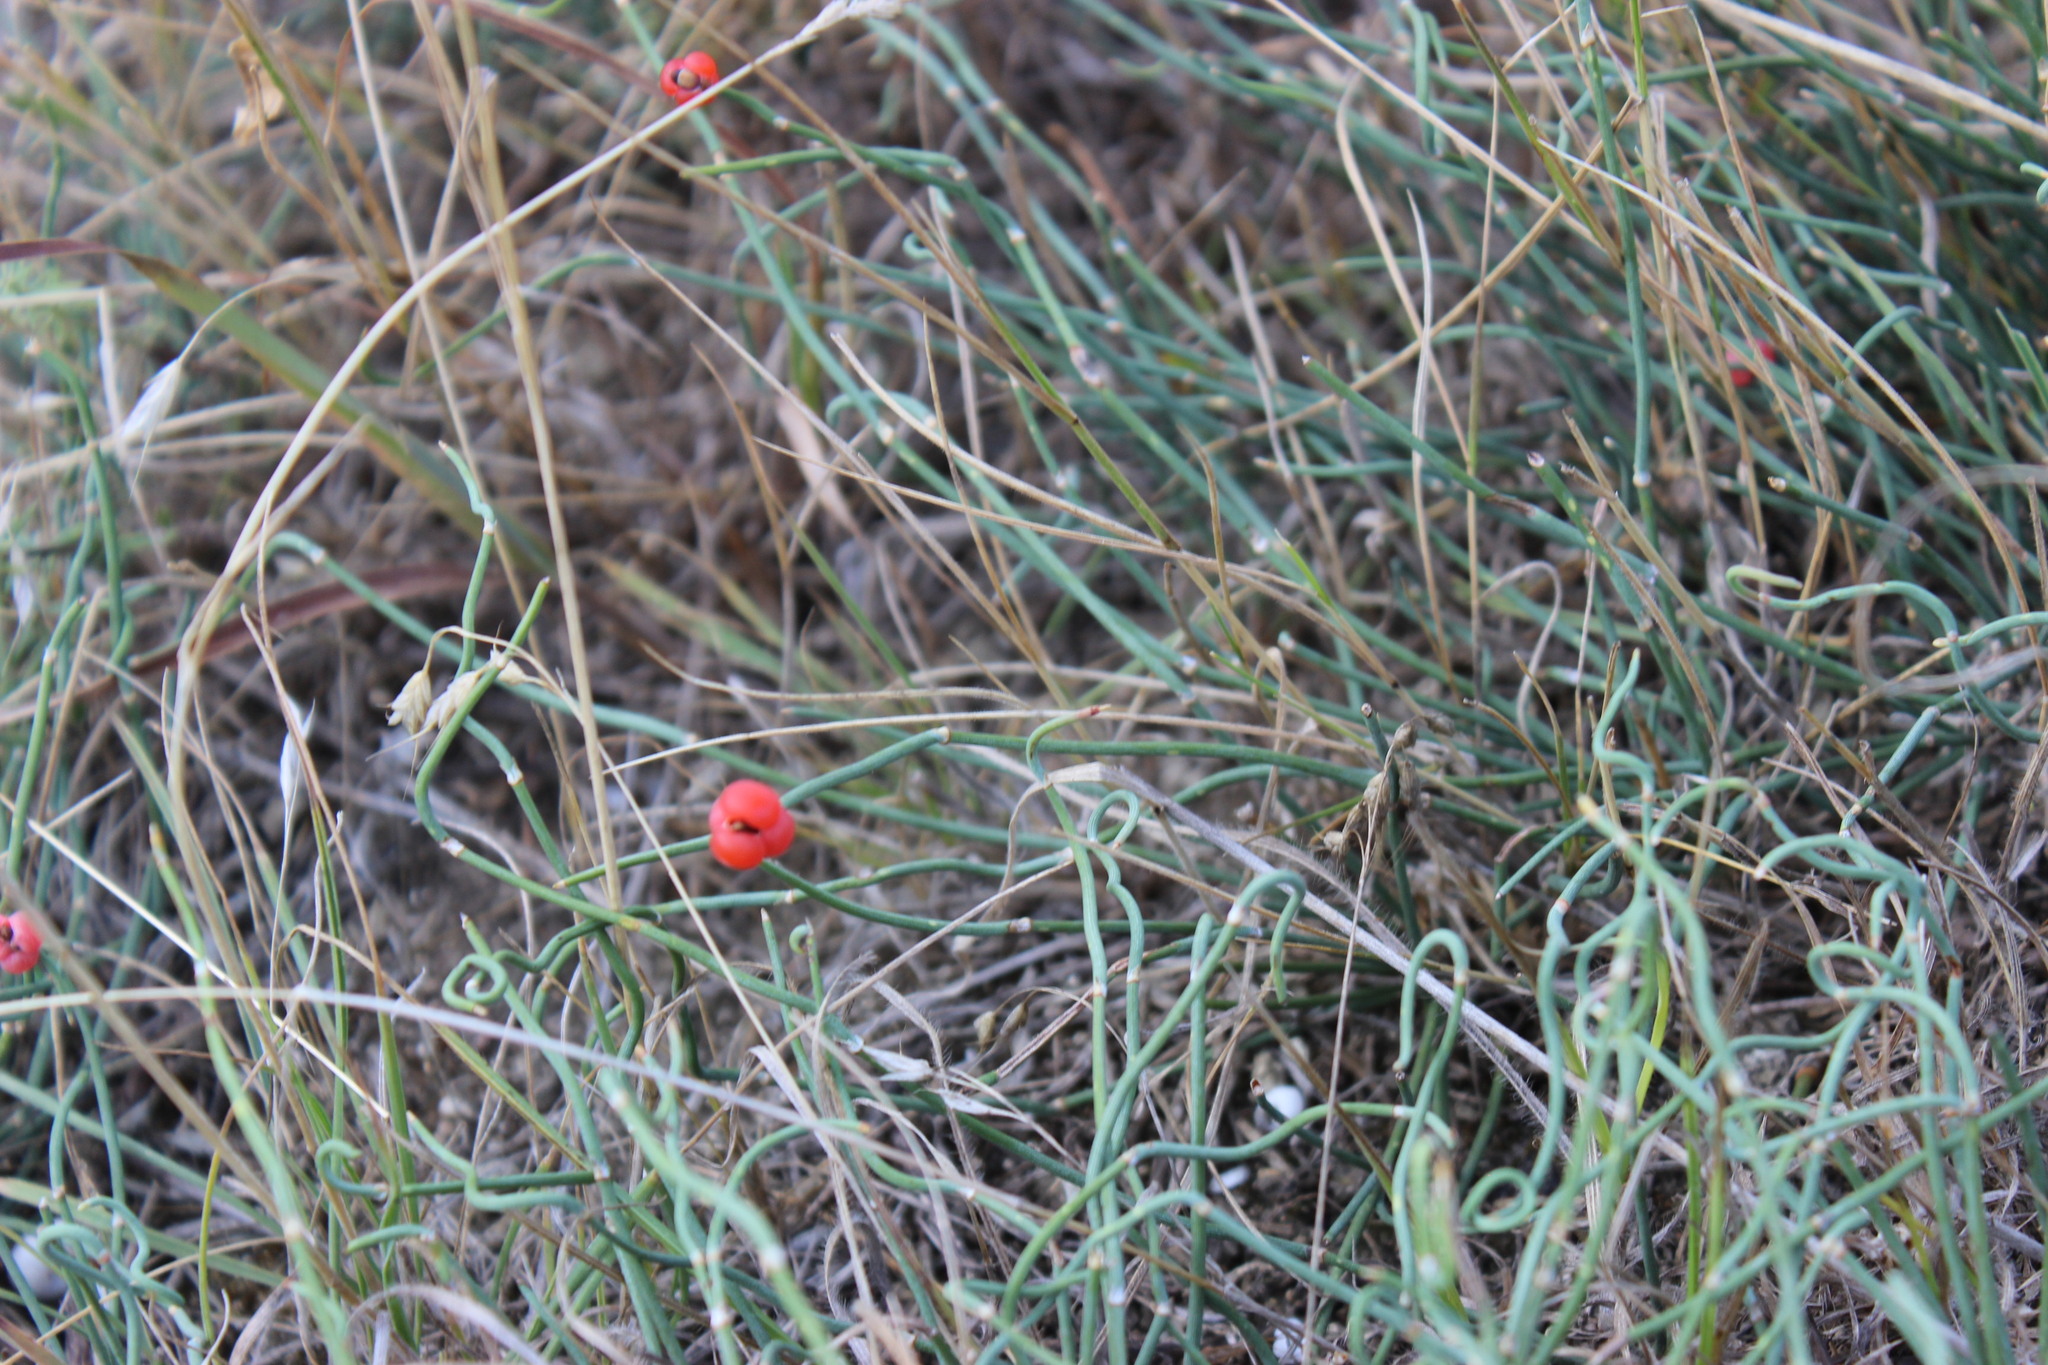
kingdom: Plantae
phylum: Tracheophyta
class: Gnetopsida
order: Ephedrales
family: Ephedraceae
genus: Ephedra
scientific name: Ephedra distachya
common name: Sea grape
